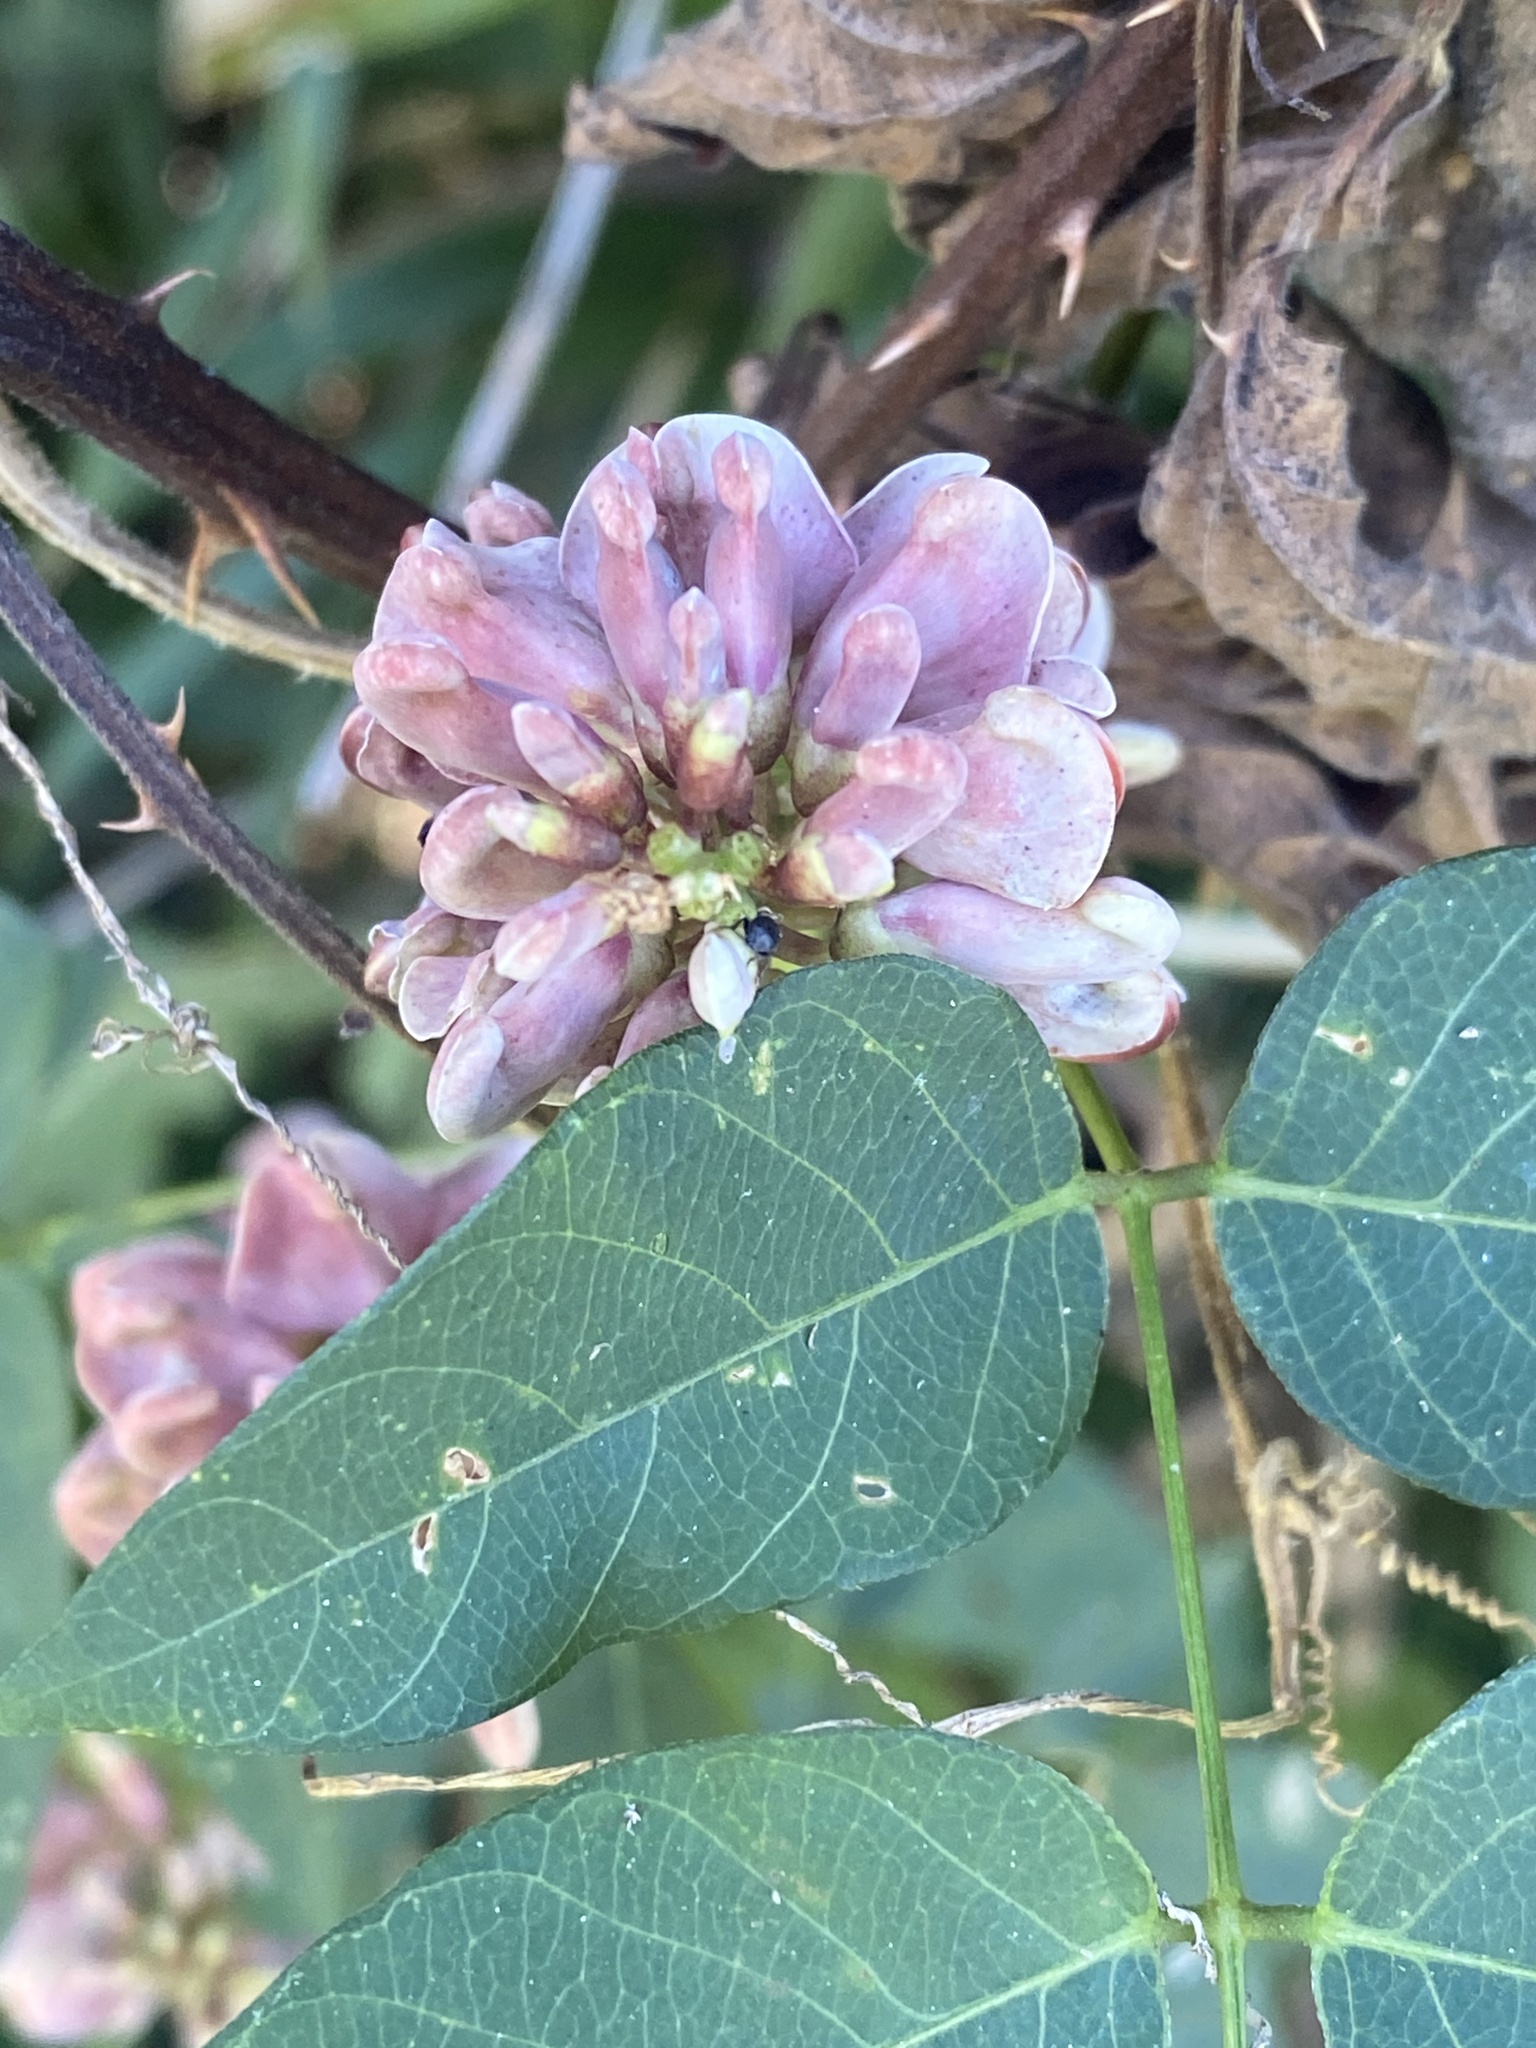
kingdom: Plantae
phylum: Tracheophyta
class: Magnoliopsida
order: Fabales
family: Fabaceae
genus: Apios
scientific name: Apios americana
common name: American potato-bean
